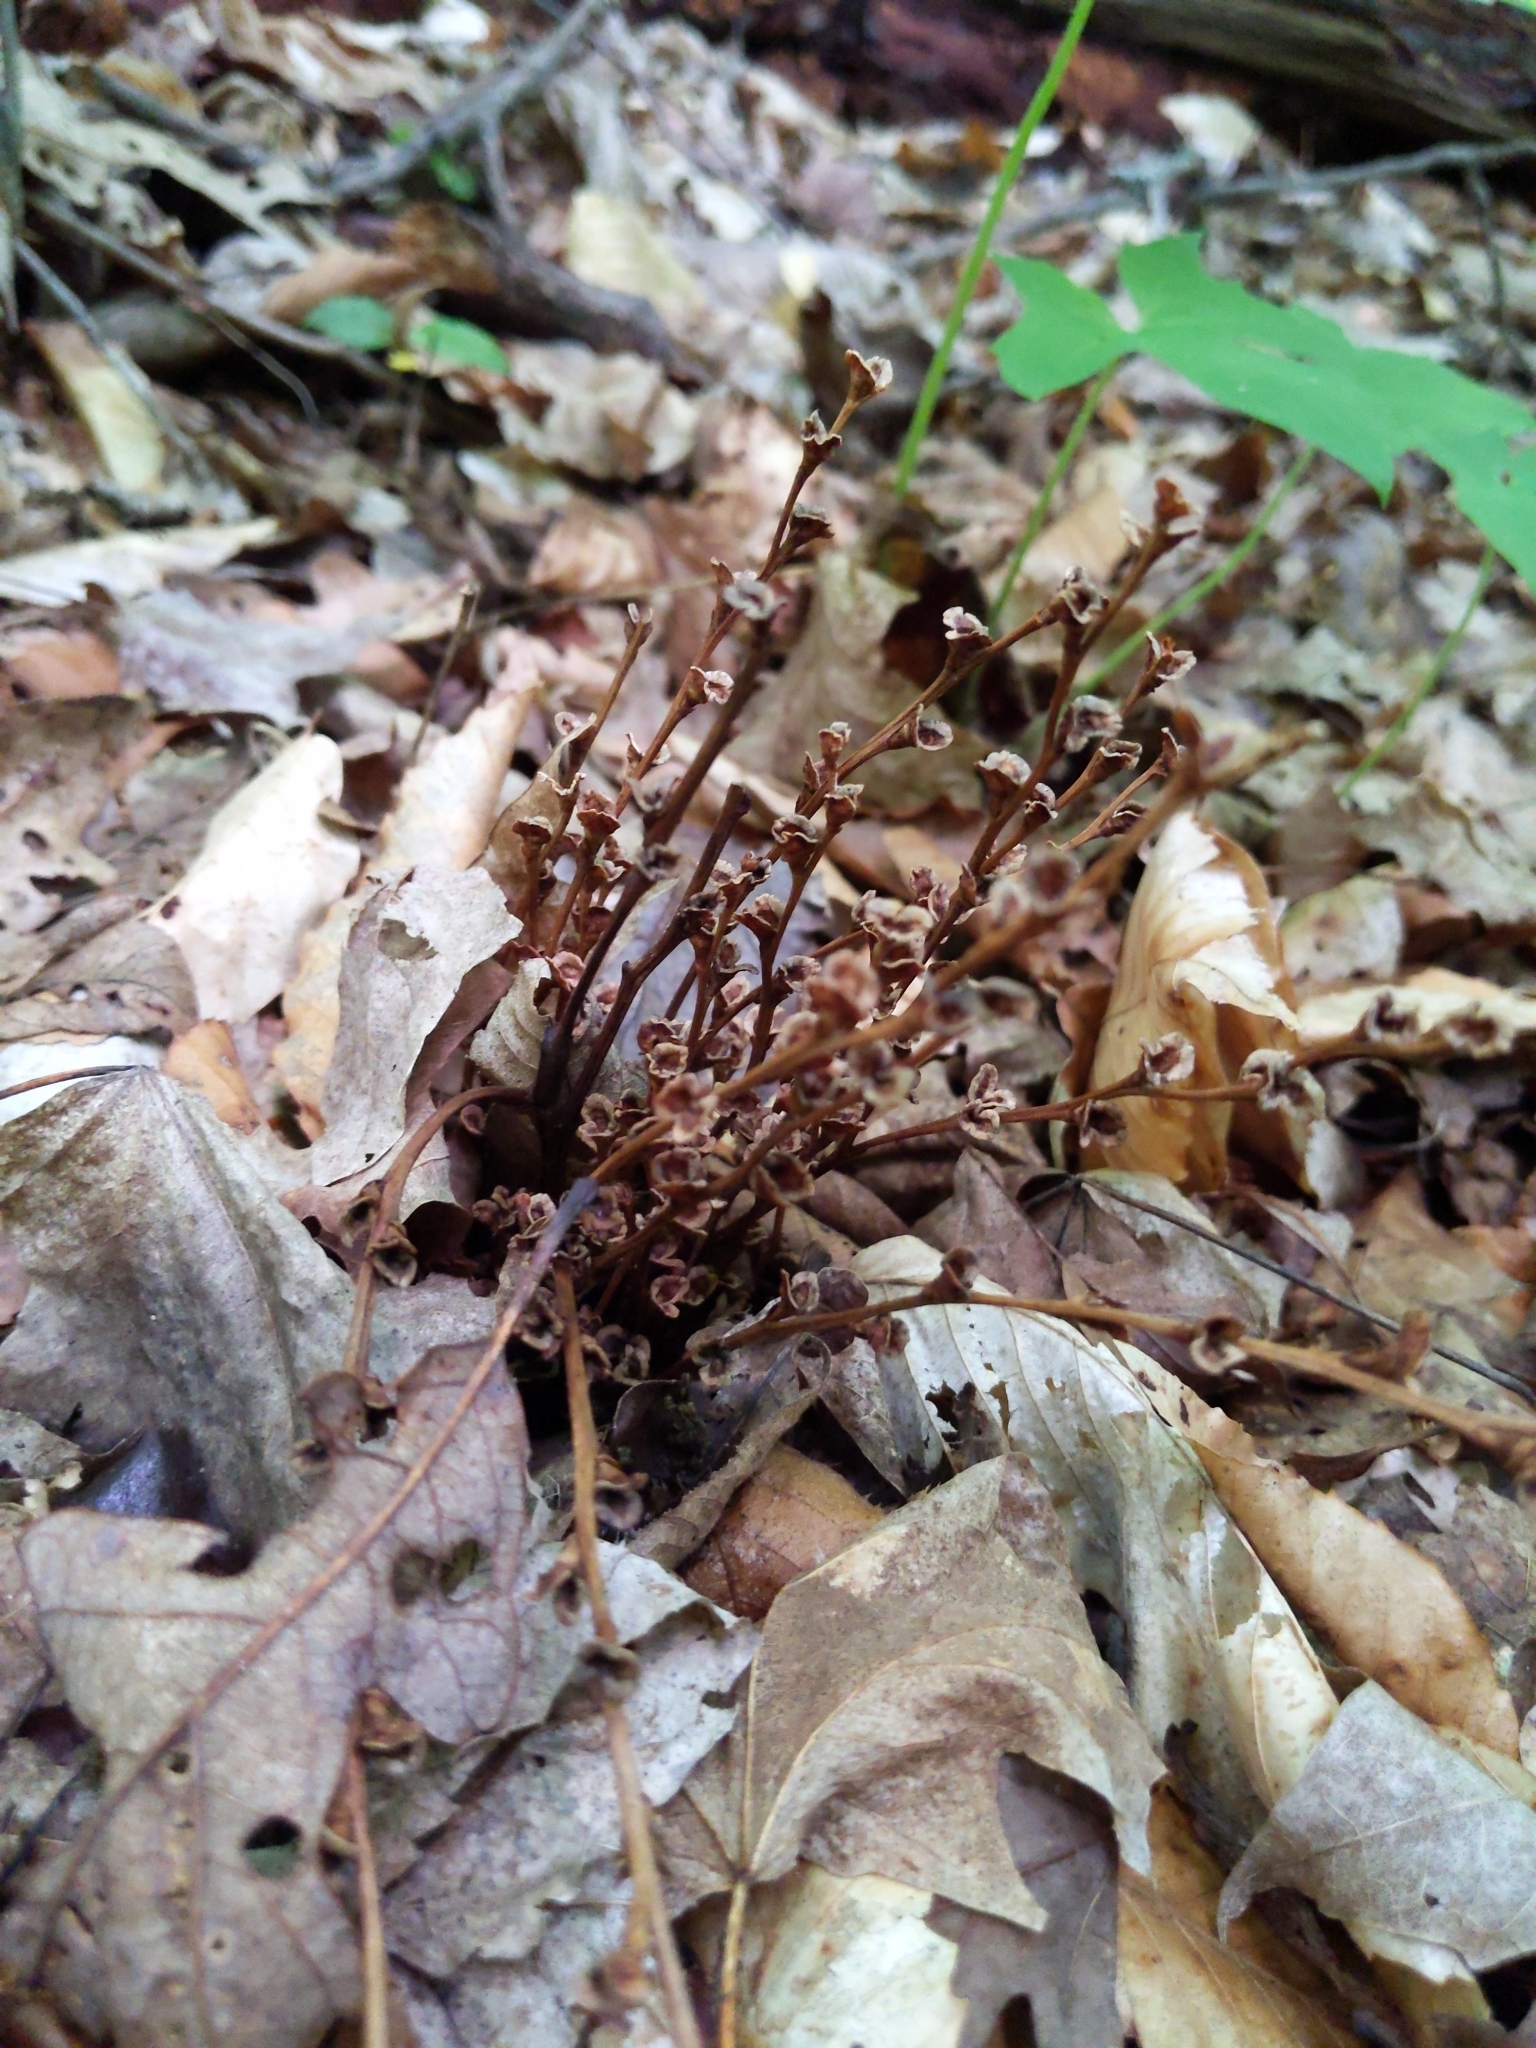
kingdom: Plantae
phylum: Tracheophyta
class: Magnoliopsida
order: Lamiales
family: Orobanchaceae
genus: Epifagus
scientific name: Epifagus virginiana
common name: Beechdrops
